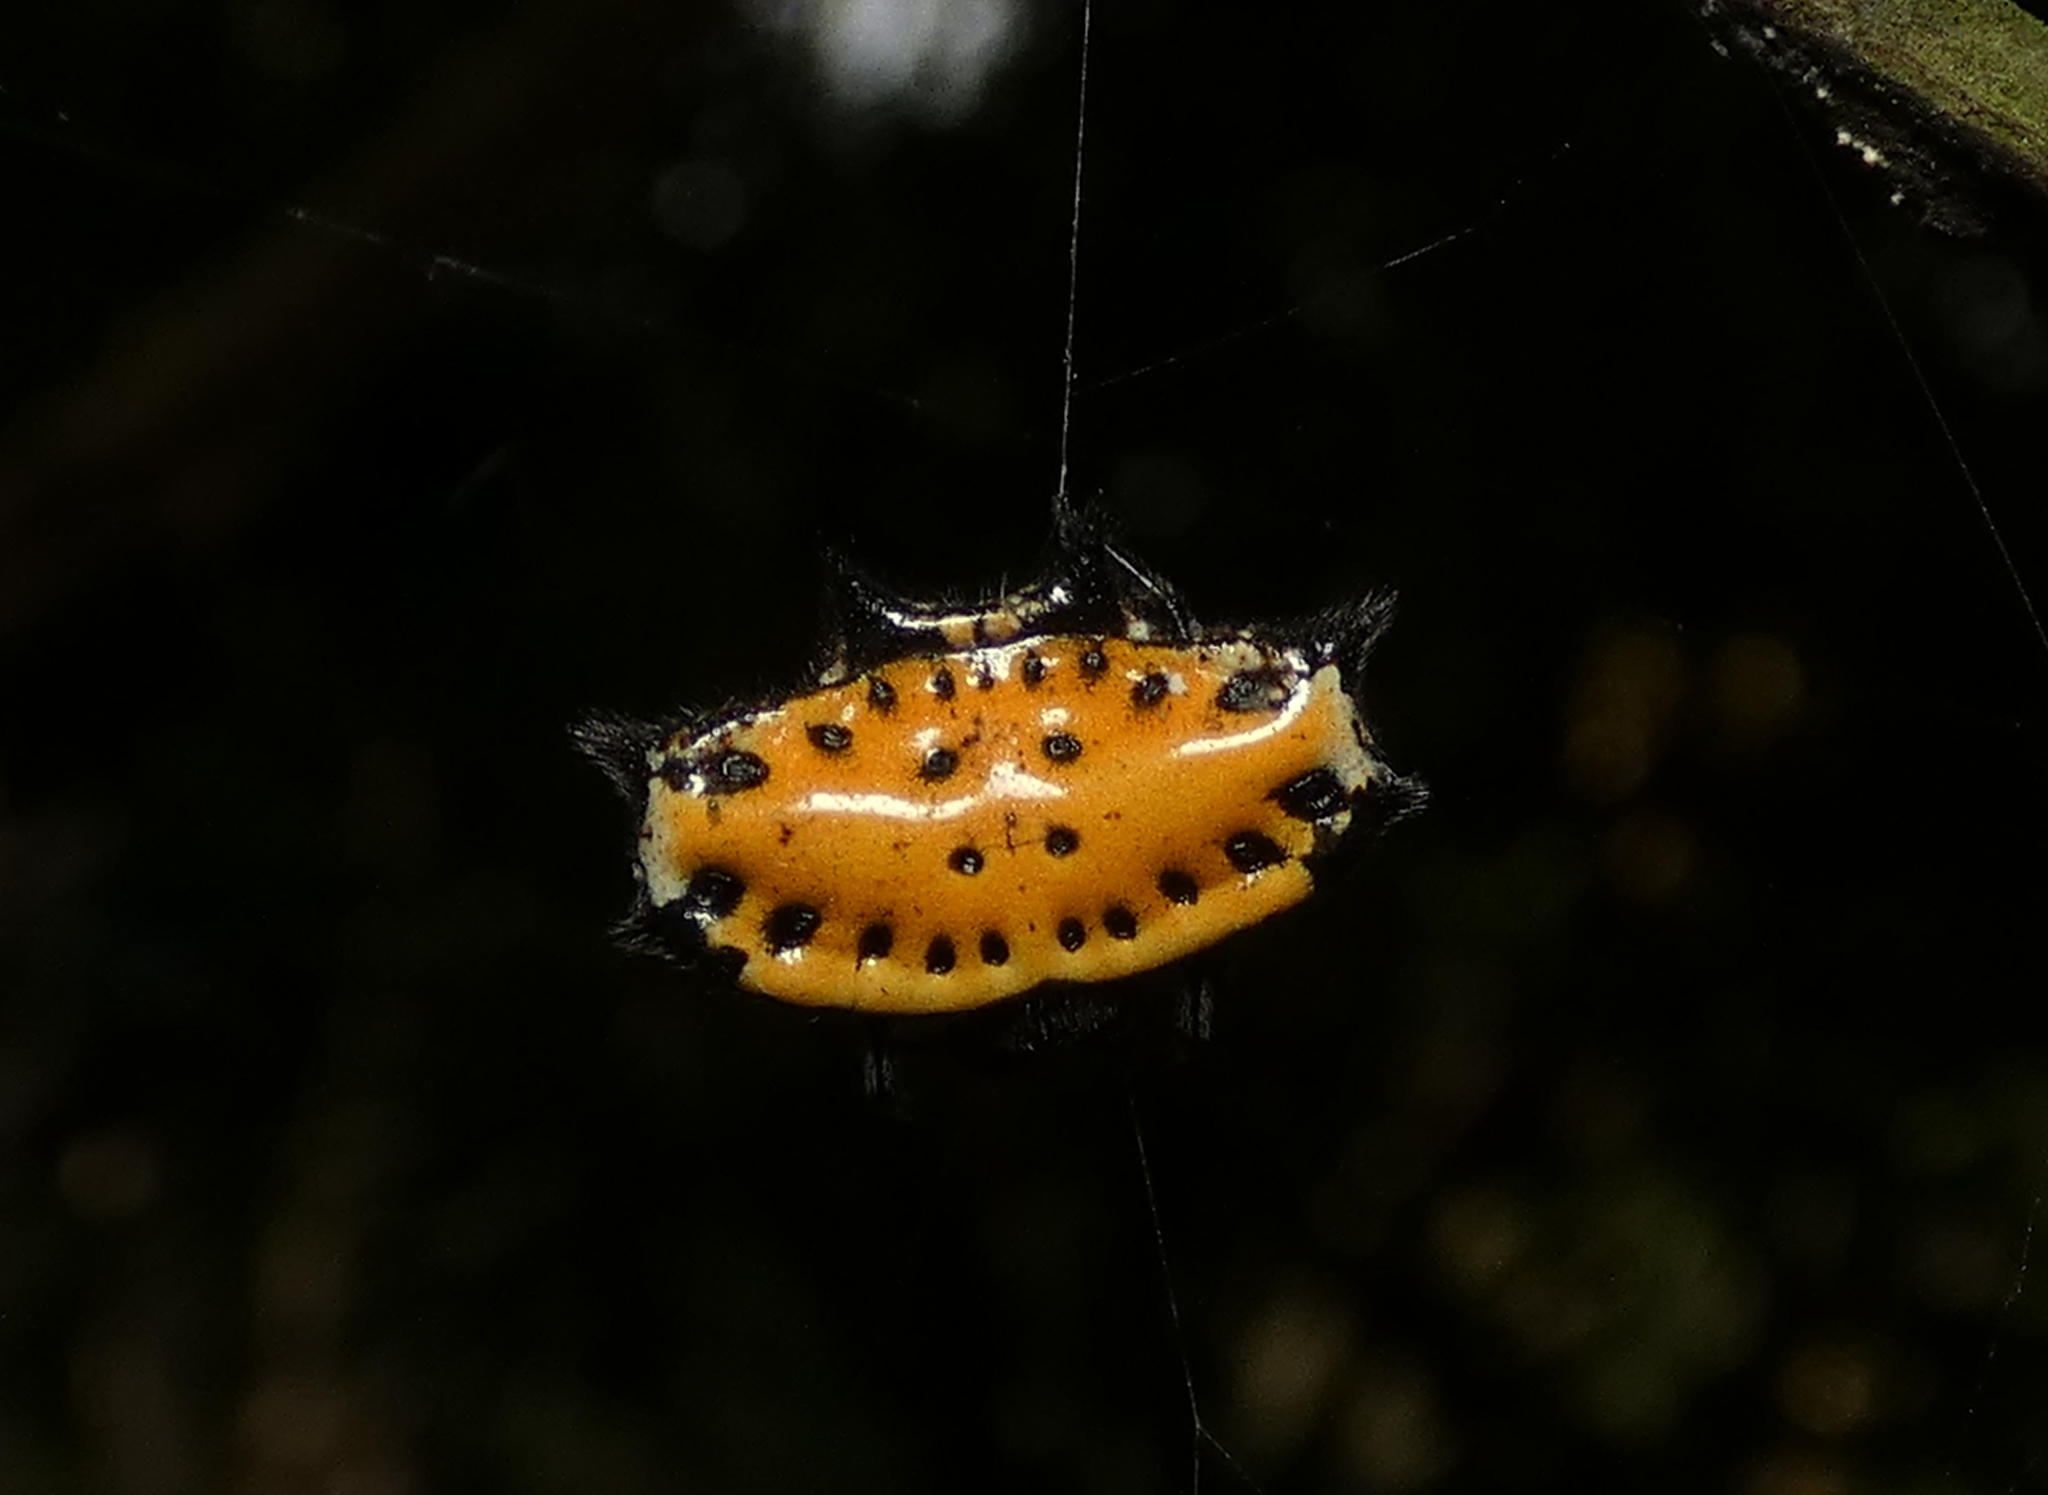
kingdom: Animalia
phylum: Arthropoda
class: Arachnida
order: Araneae
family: Araneidae
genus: Gasteracantha
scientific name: Gasteracantha cancriformis
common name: Orb weavers
